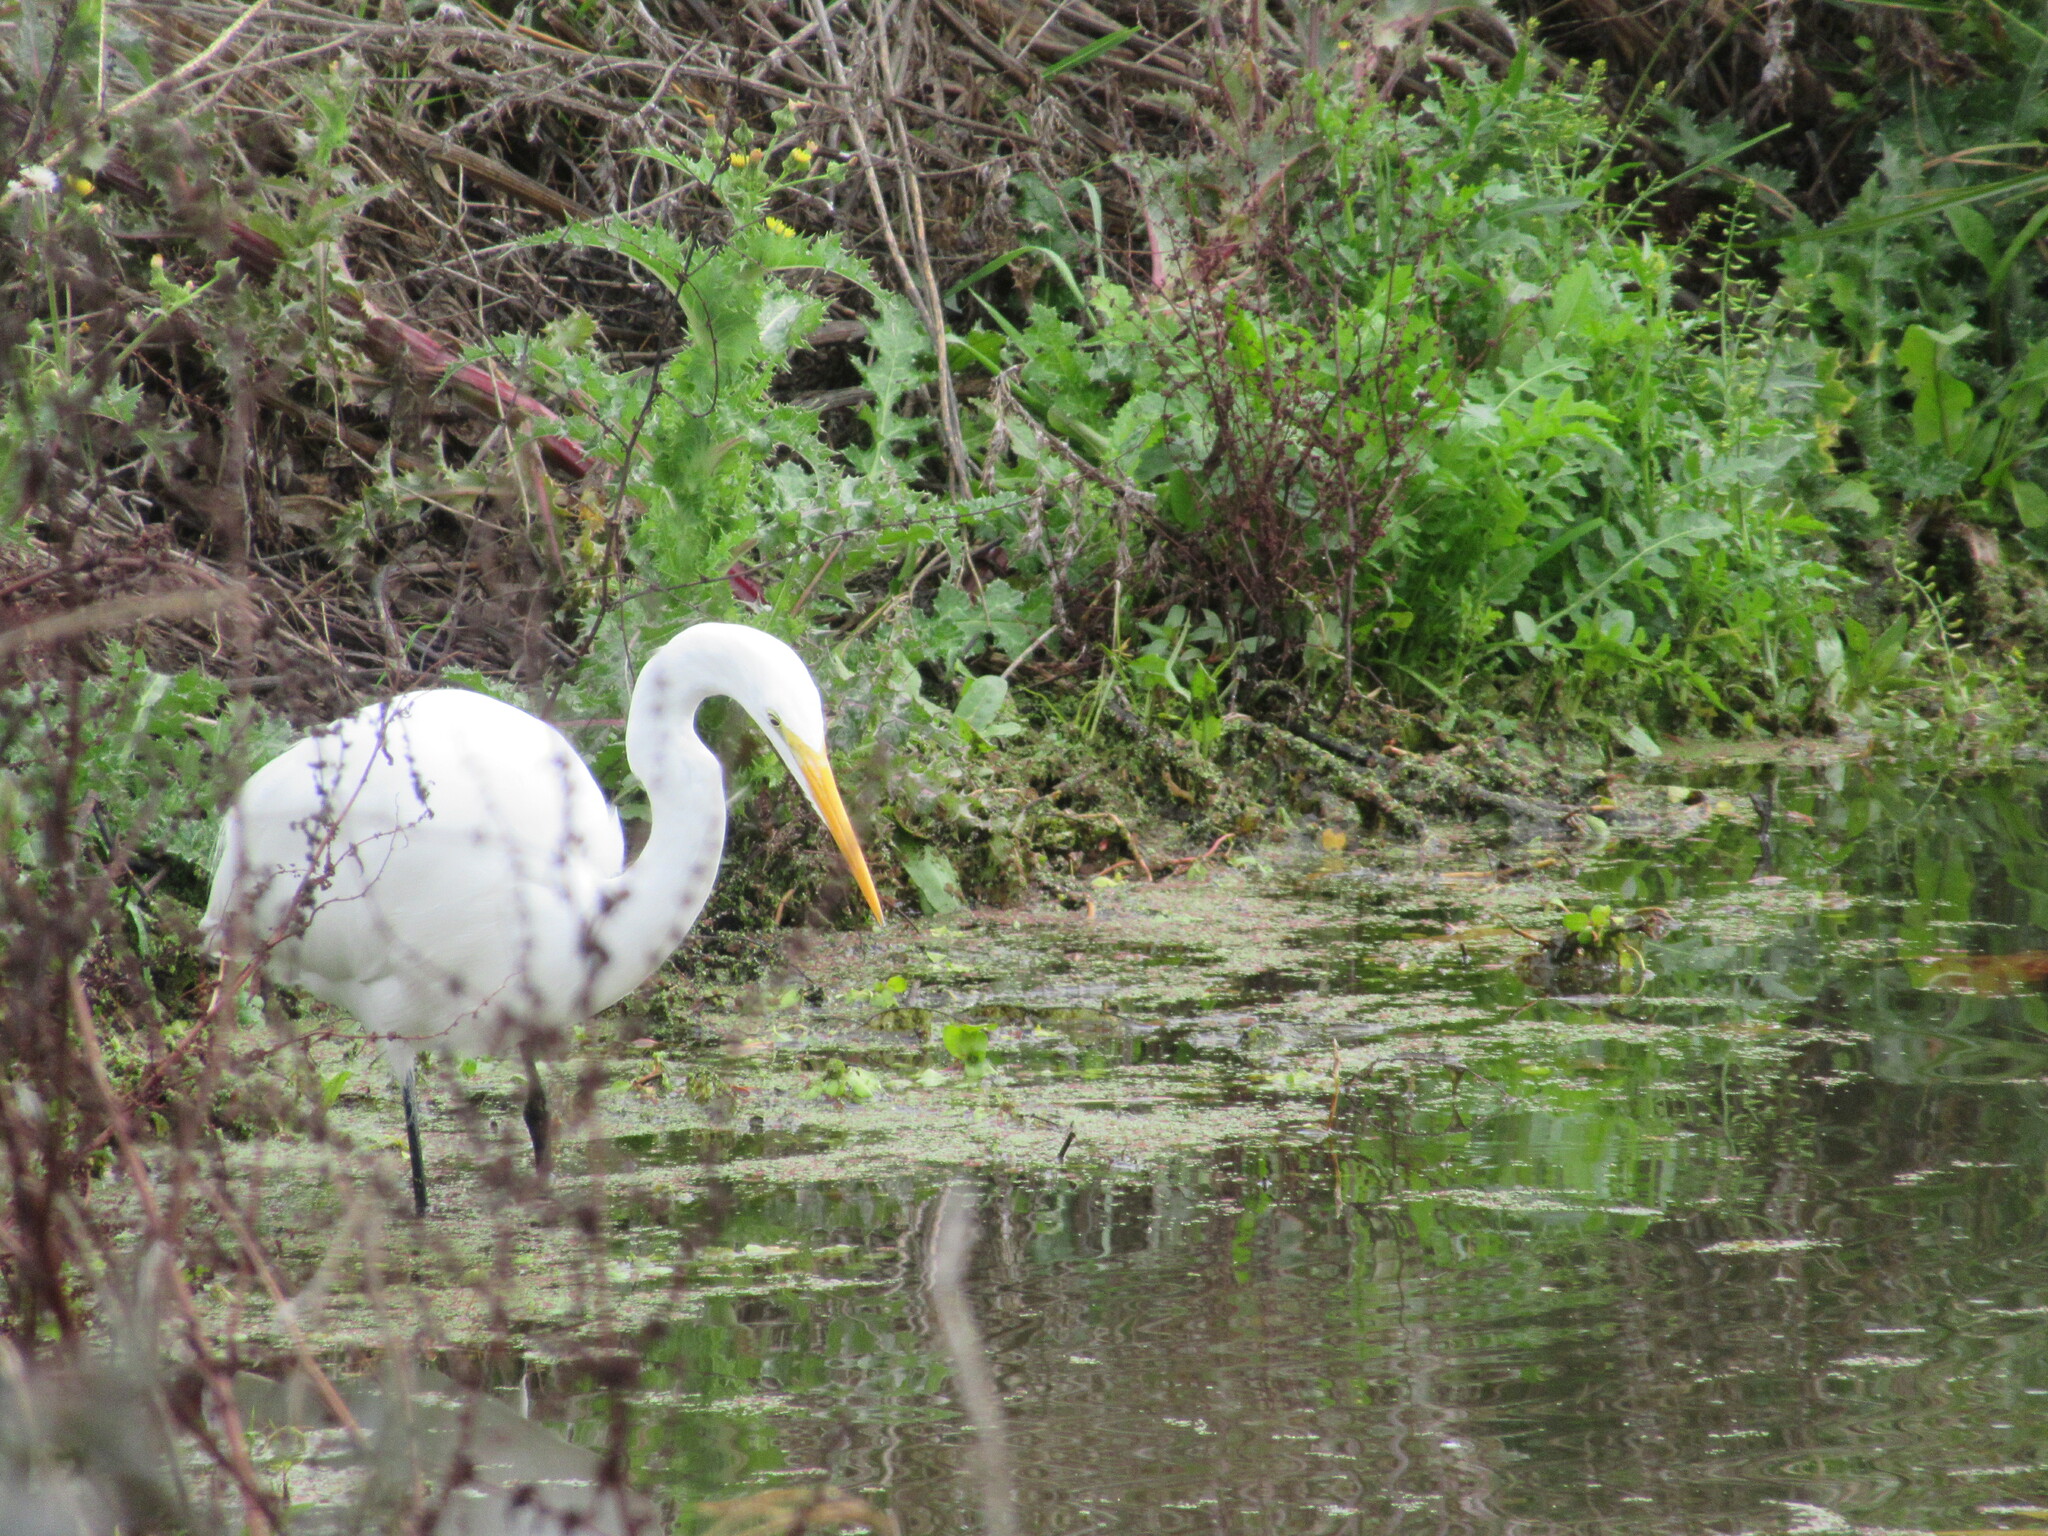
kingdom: Animalia
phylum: Chordata
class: Aves
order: Pelecaniformes
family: Ardeidae
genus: Ardea
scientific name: Ardea alba
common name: Great egret
